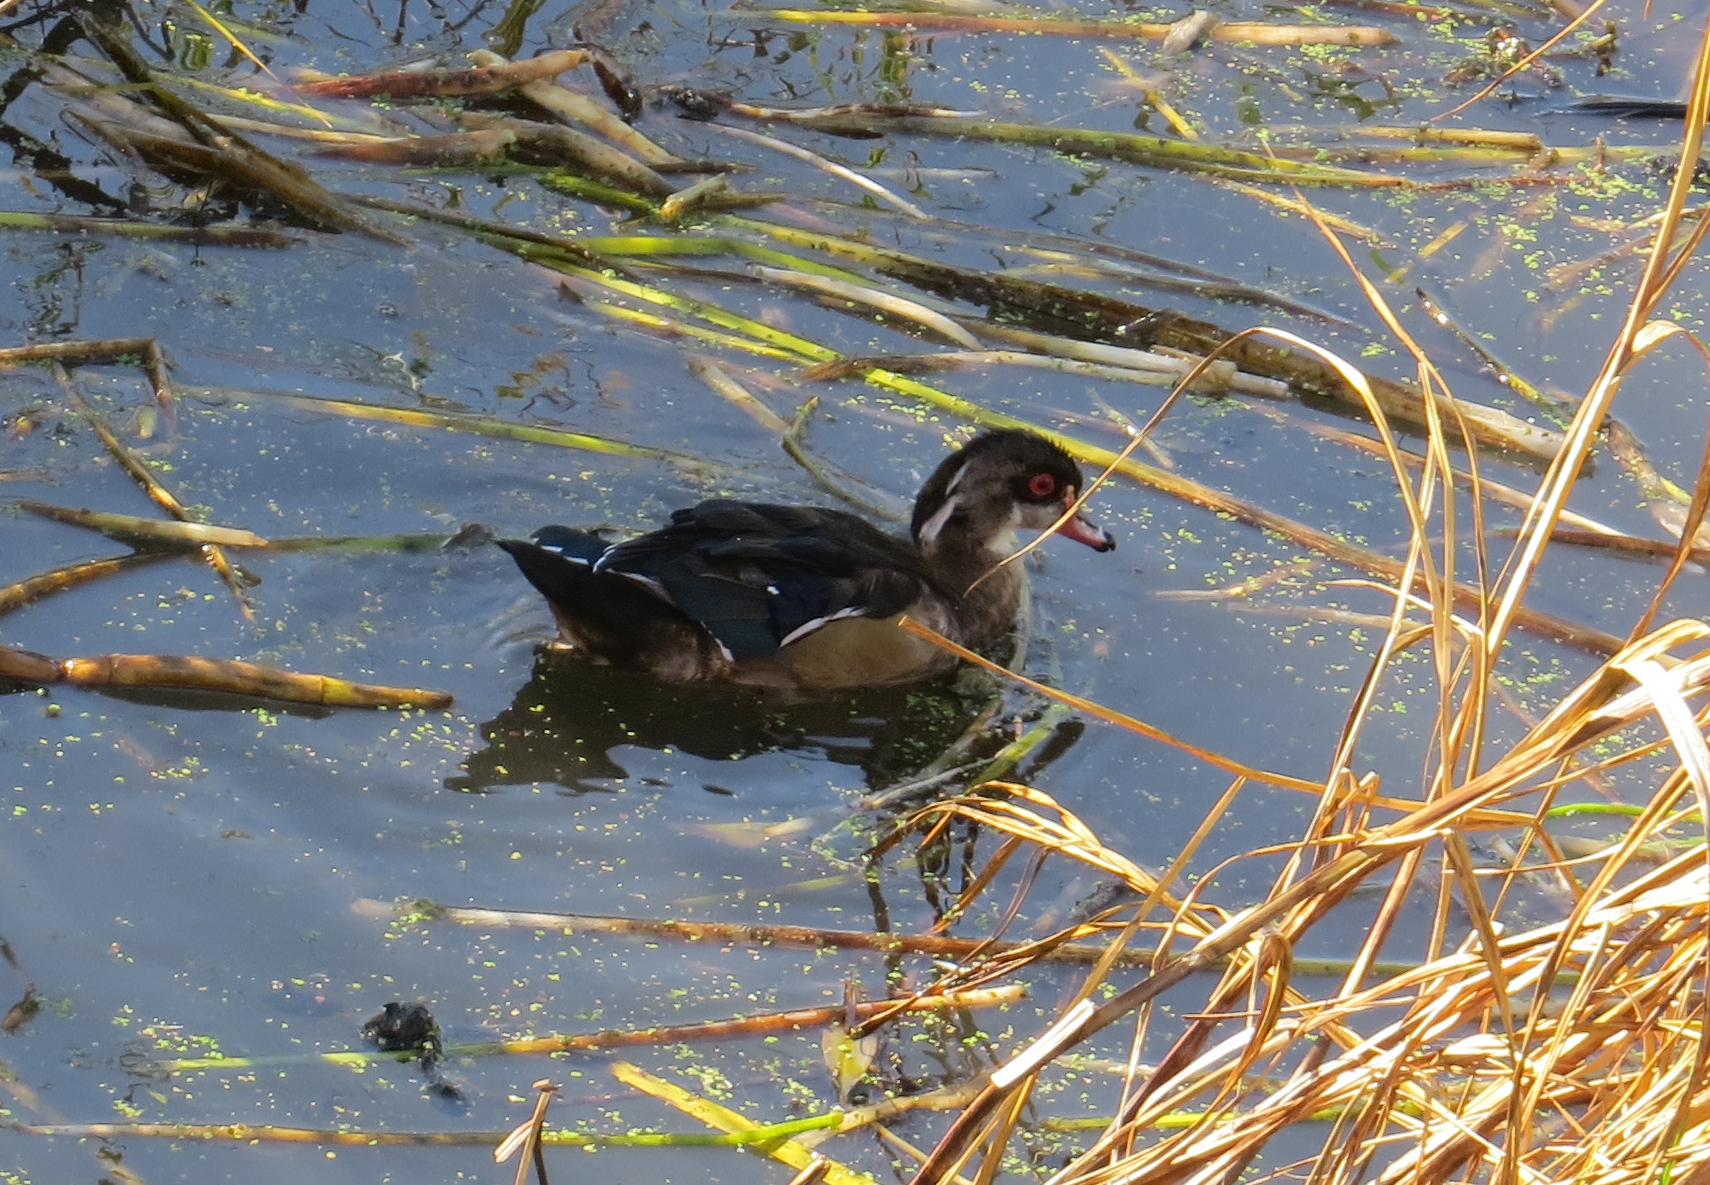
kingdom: Animalia
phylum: Chordata
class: Aves
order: Anseriformes
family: Anatidae
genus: Aix
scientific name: Aix sponsa
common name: Wood duck
